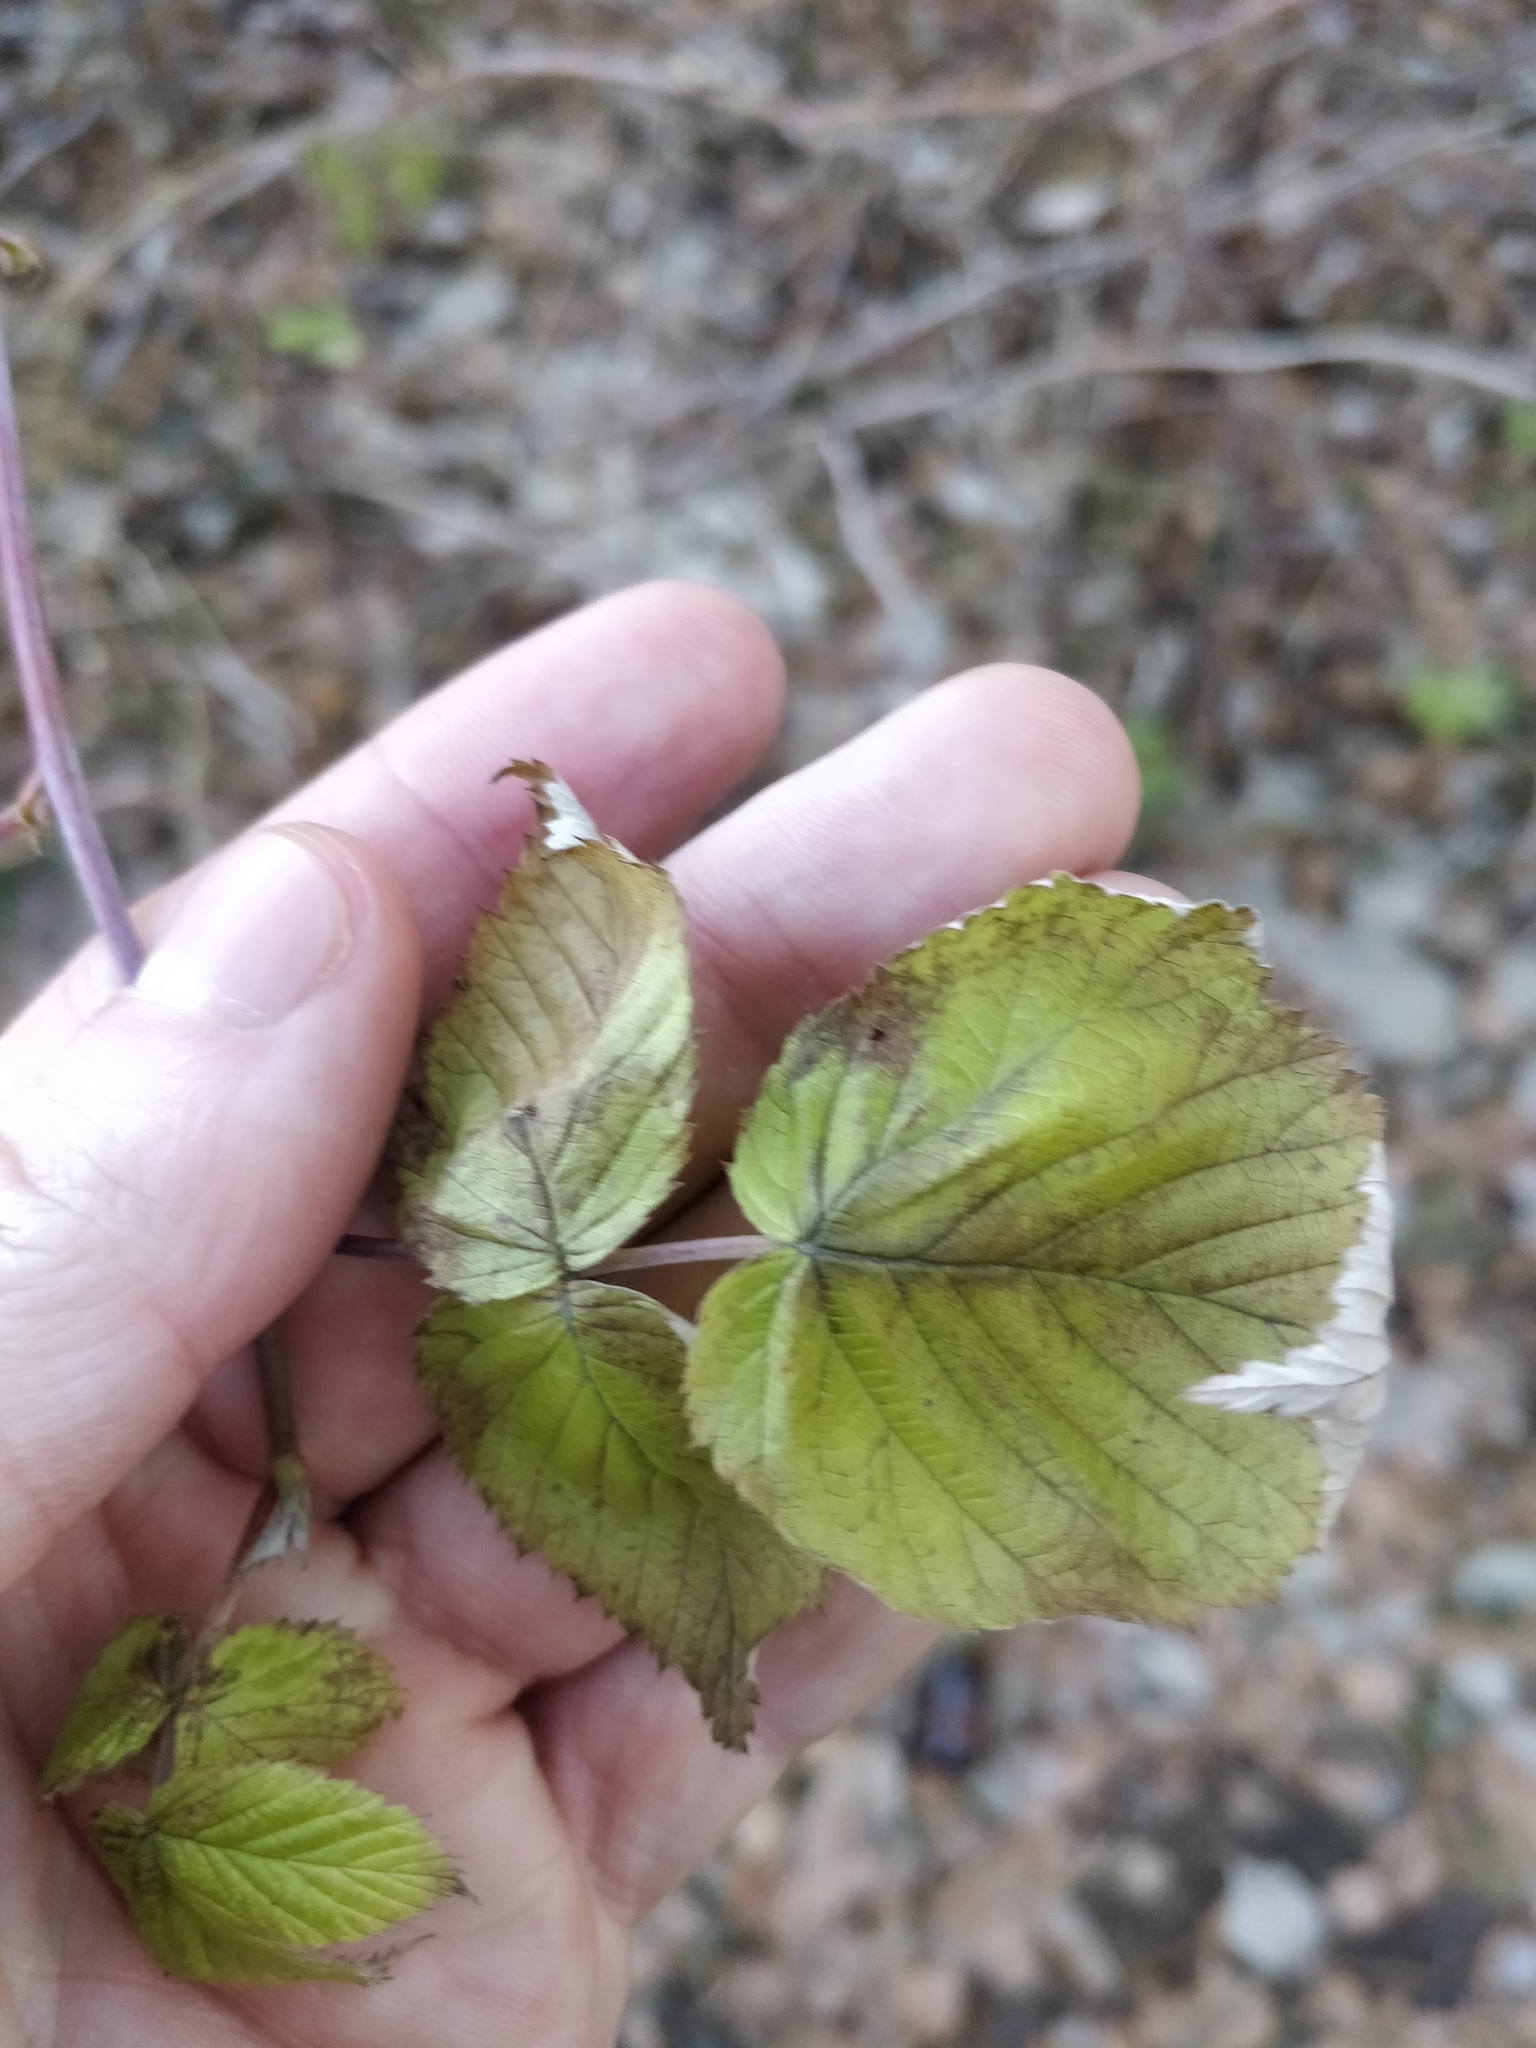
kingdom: Plantae
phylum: Tracheophyta
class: Magnoliopsida
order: Rosales
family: Rosaceae
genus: Rubus
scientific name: Rubus idaeus
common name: Raspberry
